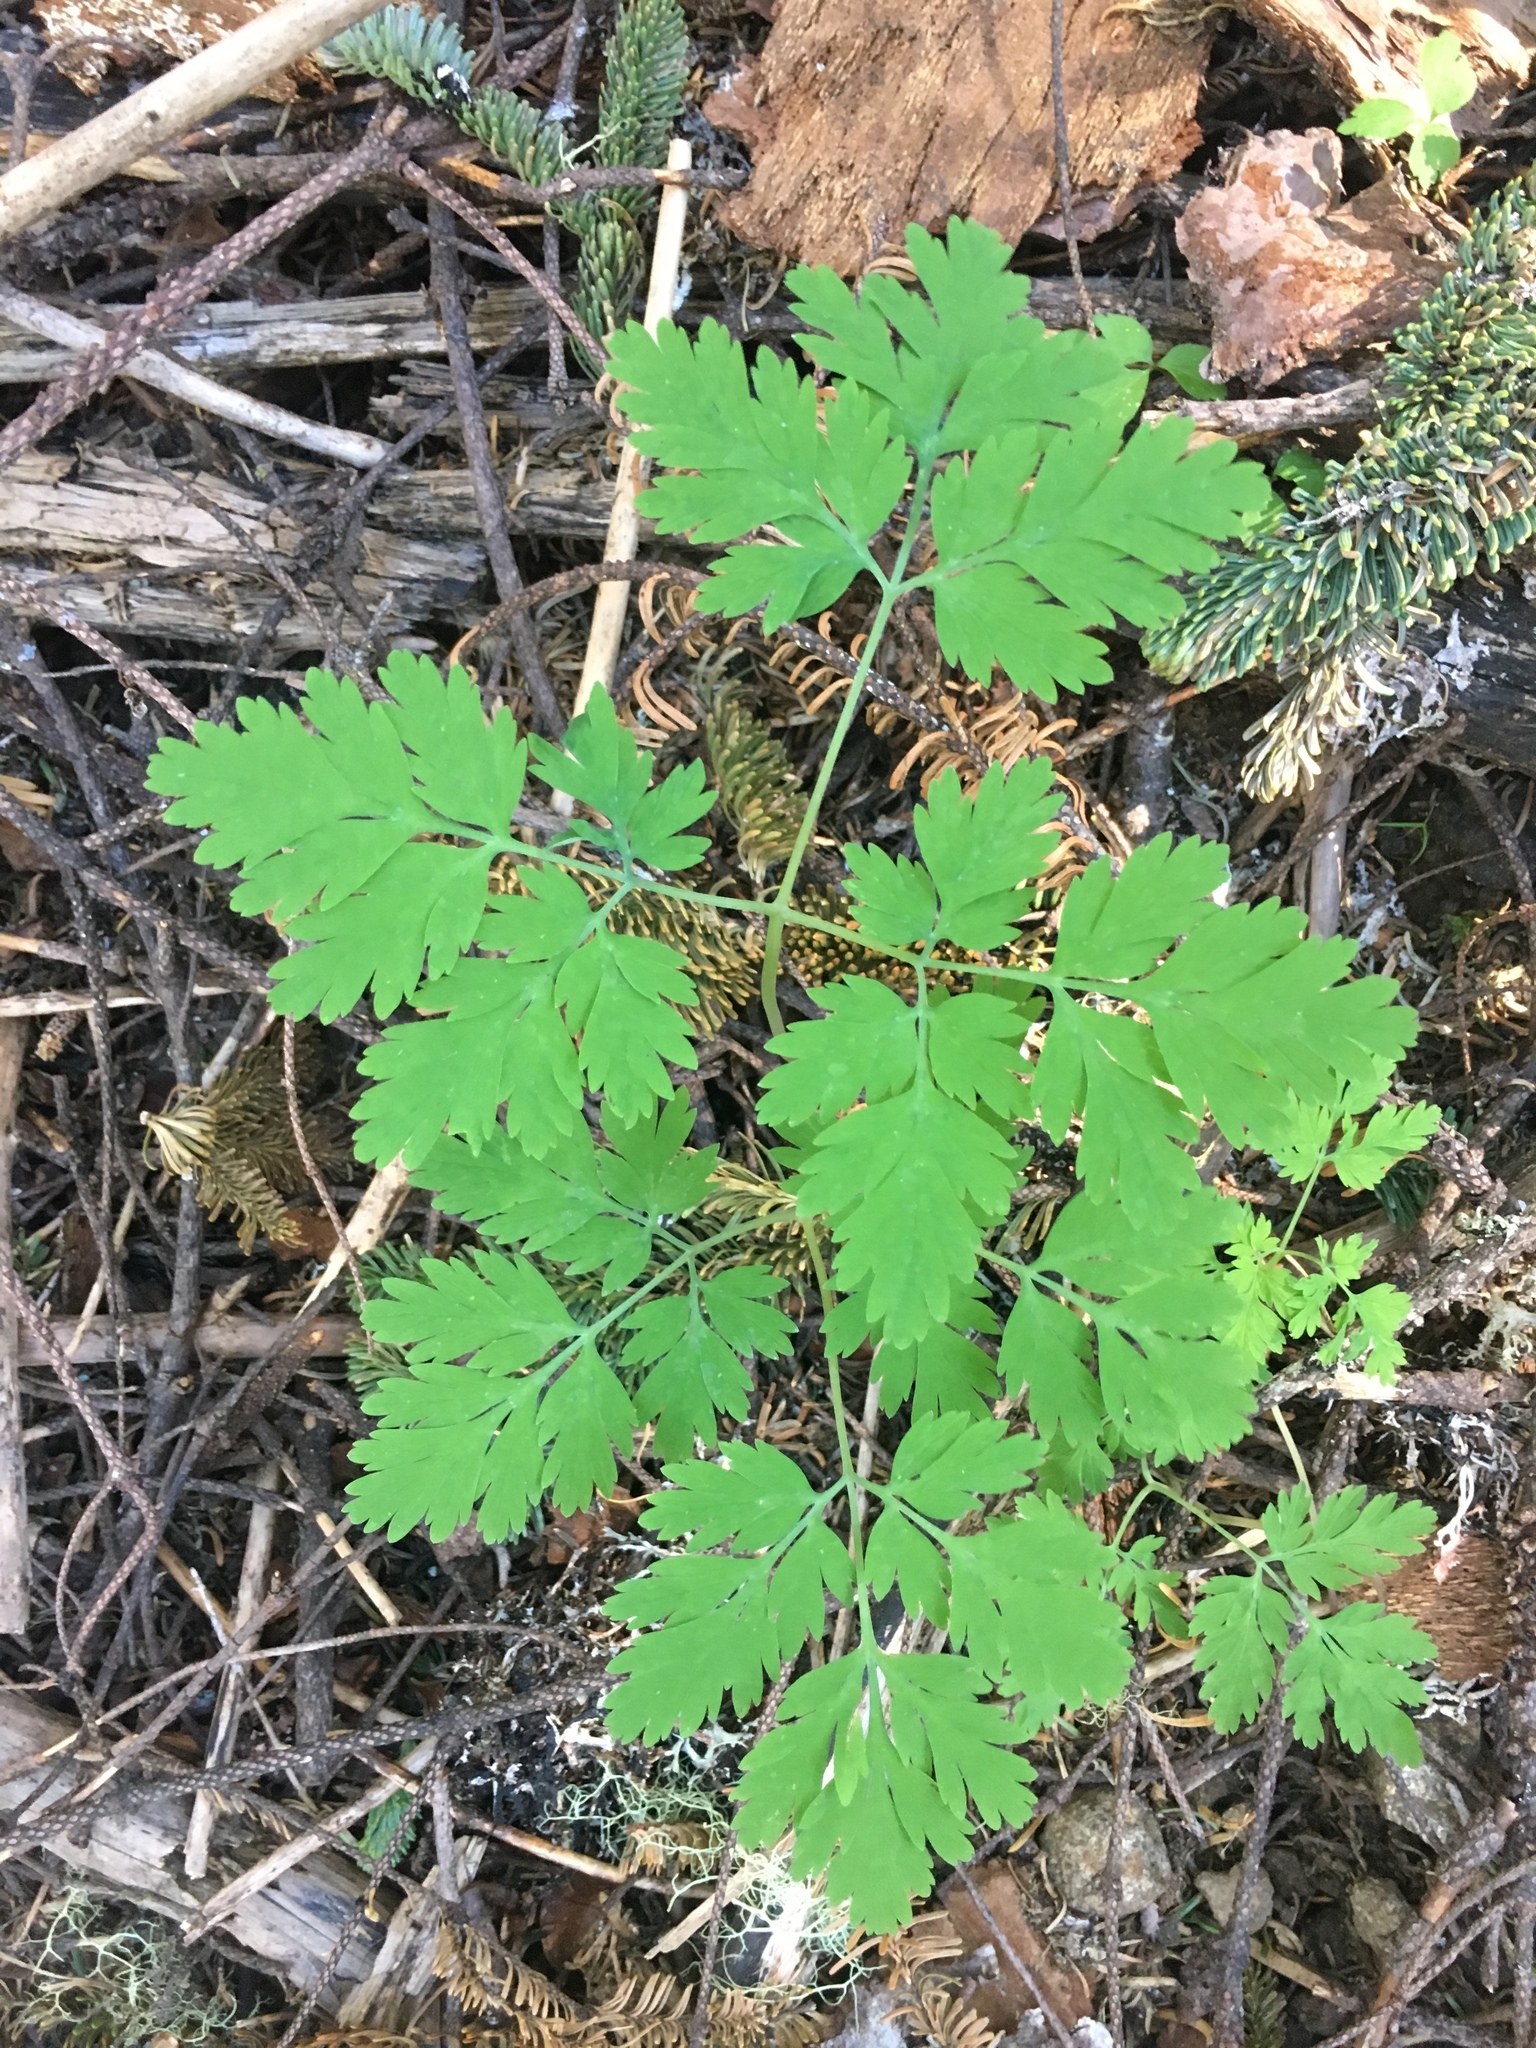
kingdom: Plantae
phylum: Tracheophyta
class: Magnoliopsida
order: Ranunculales
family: Papaveraceae
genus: Dicentra
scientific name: Dicentra formosa
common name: Bleeding-heart
